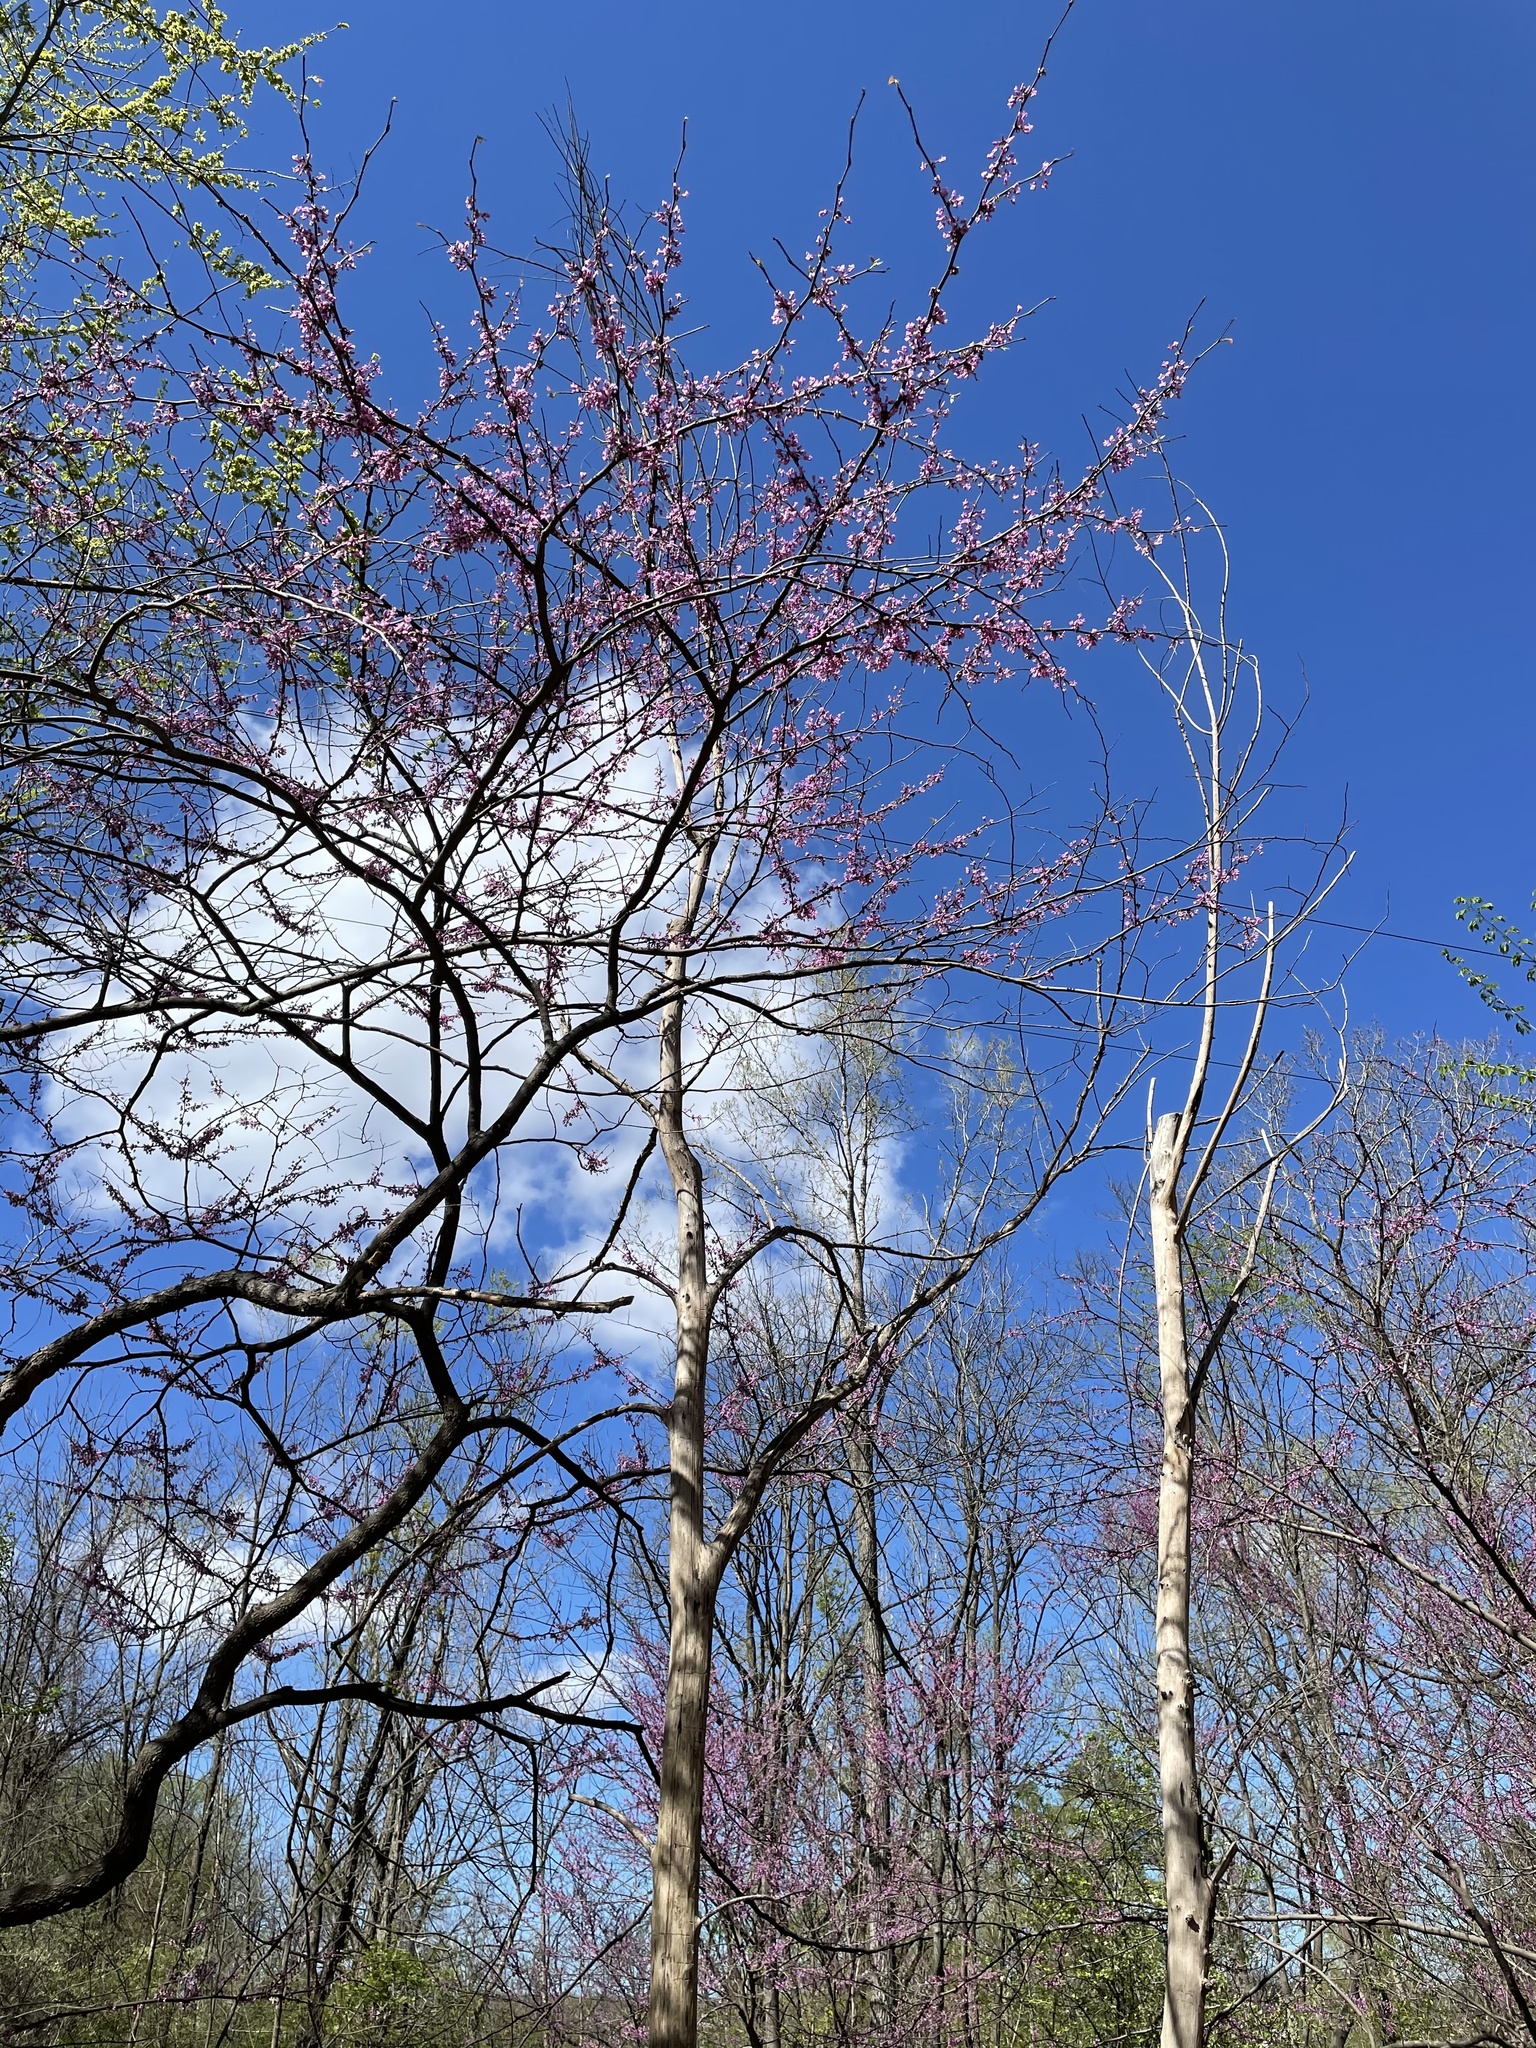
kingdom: Plantae
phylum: Tracheophyta
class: Magnoliopsida
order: Fabales
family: Fabaceae
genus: Cercis
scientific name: Cercis canadensis
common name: Eastern redbud
